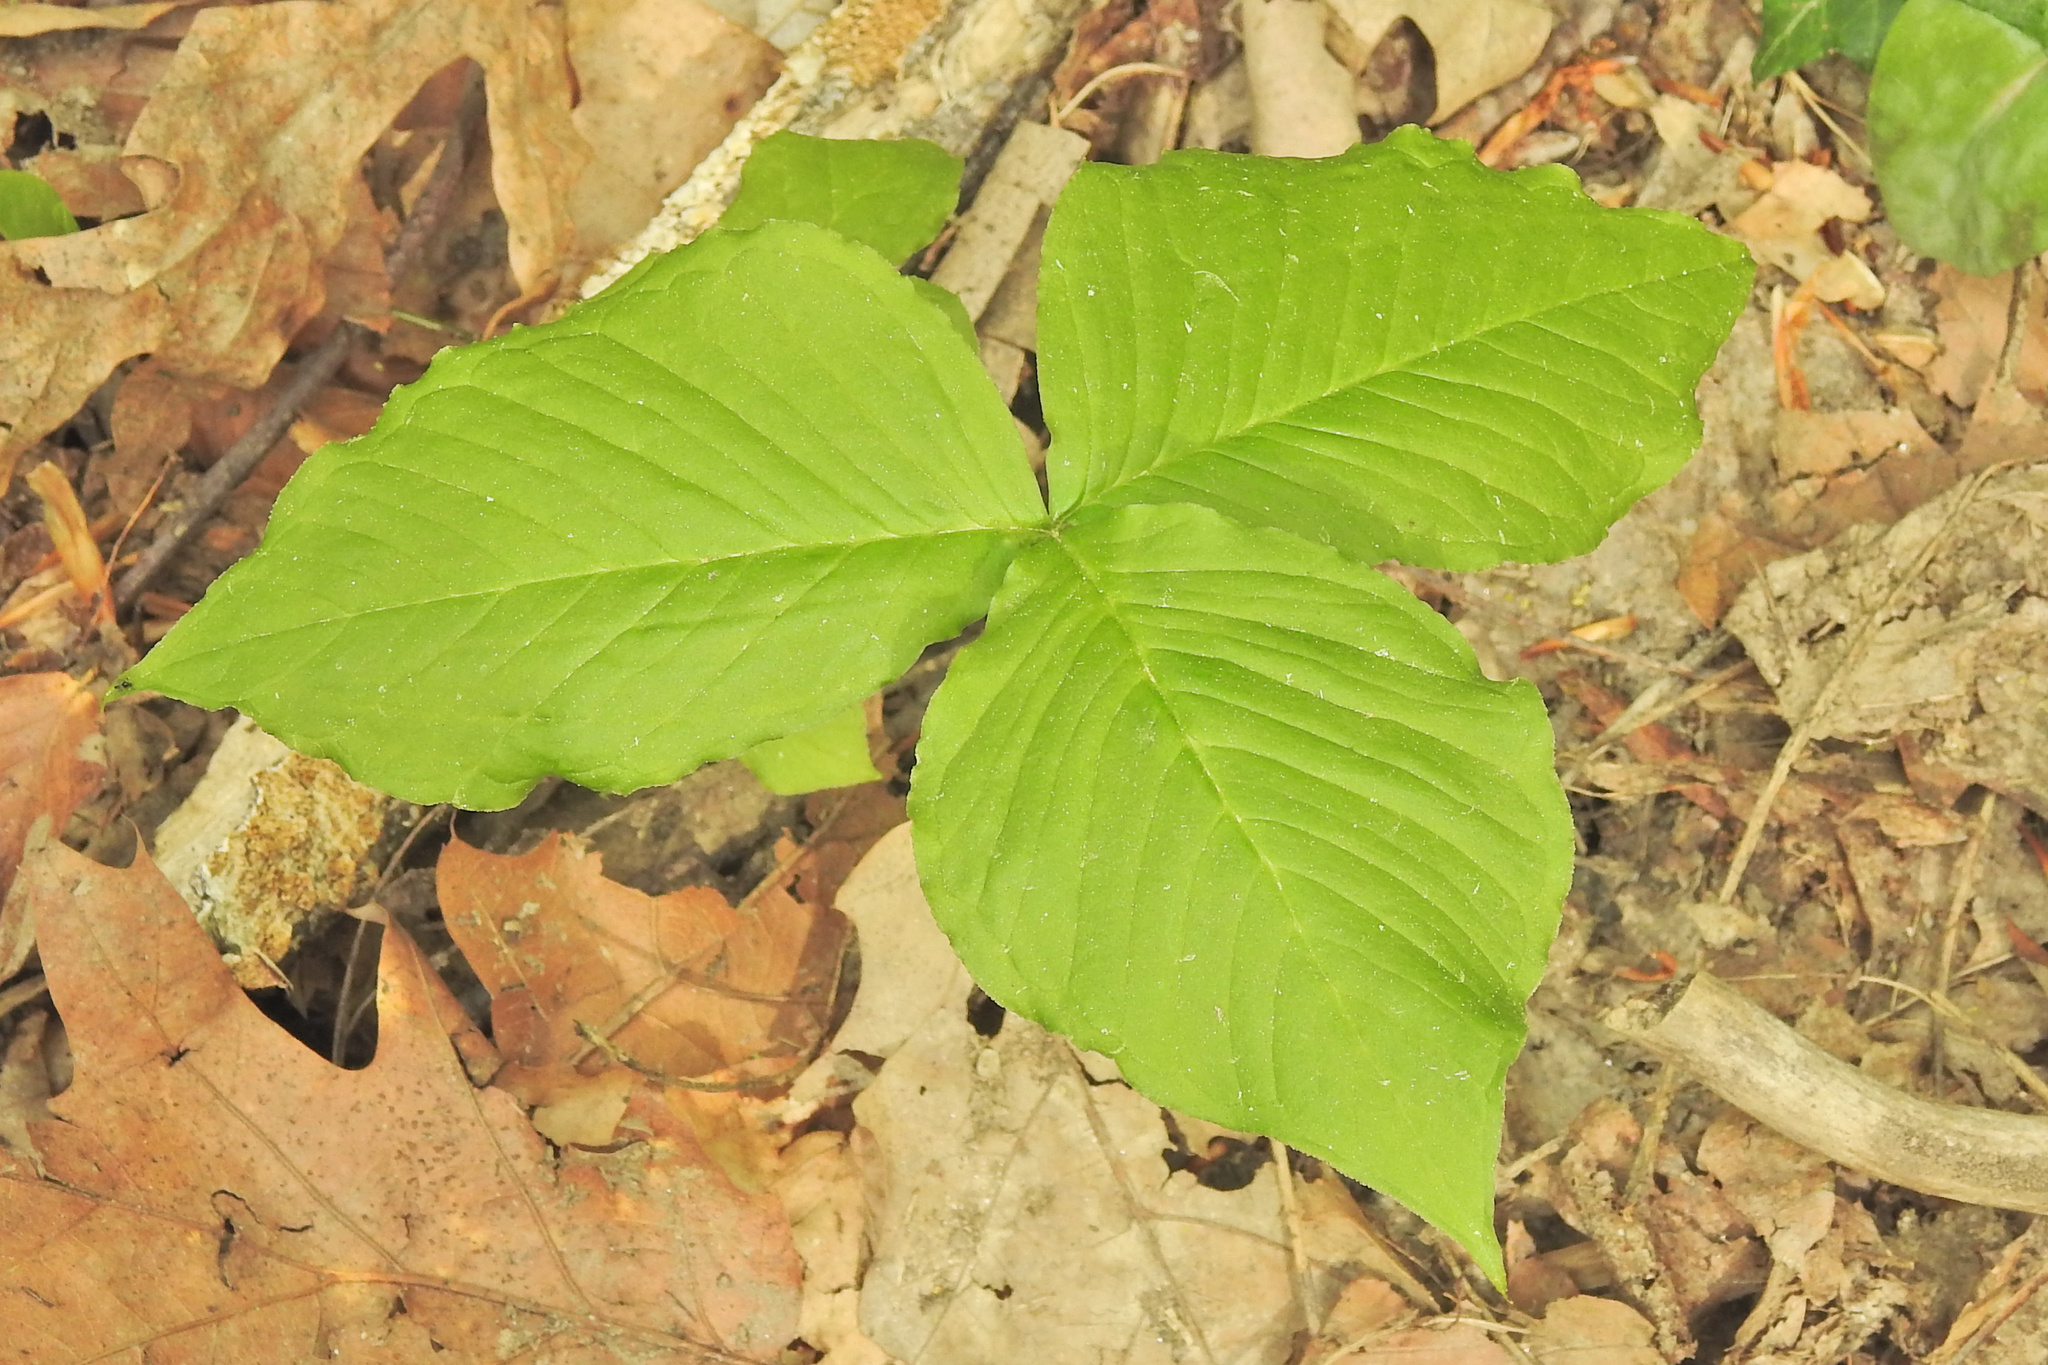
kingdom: Plantae
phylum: Tracheophyta
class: Liliopsida
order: Alismatales
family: Araceae
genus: Arisaema
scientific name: Arisaema triphyllum
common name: Jack-in-the-pulpit
